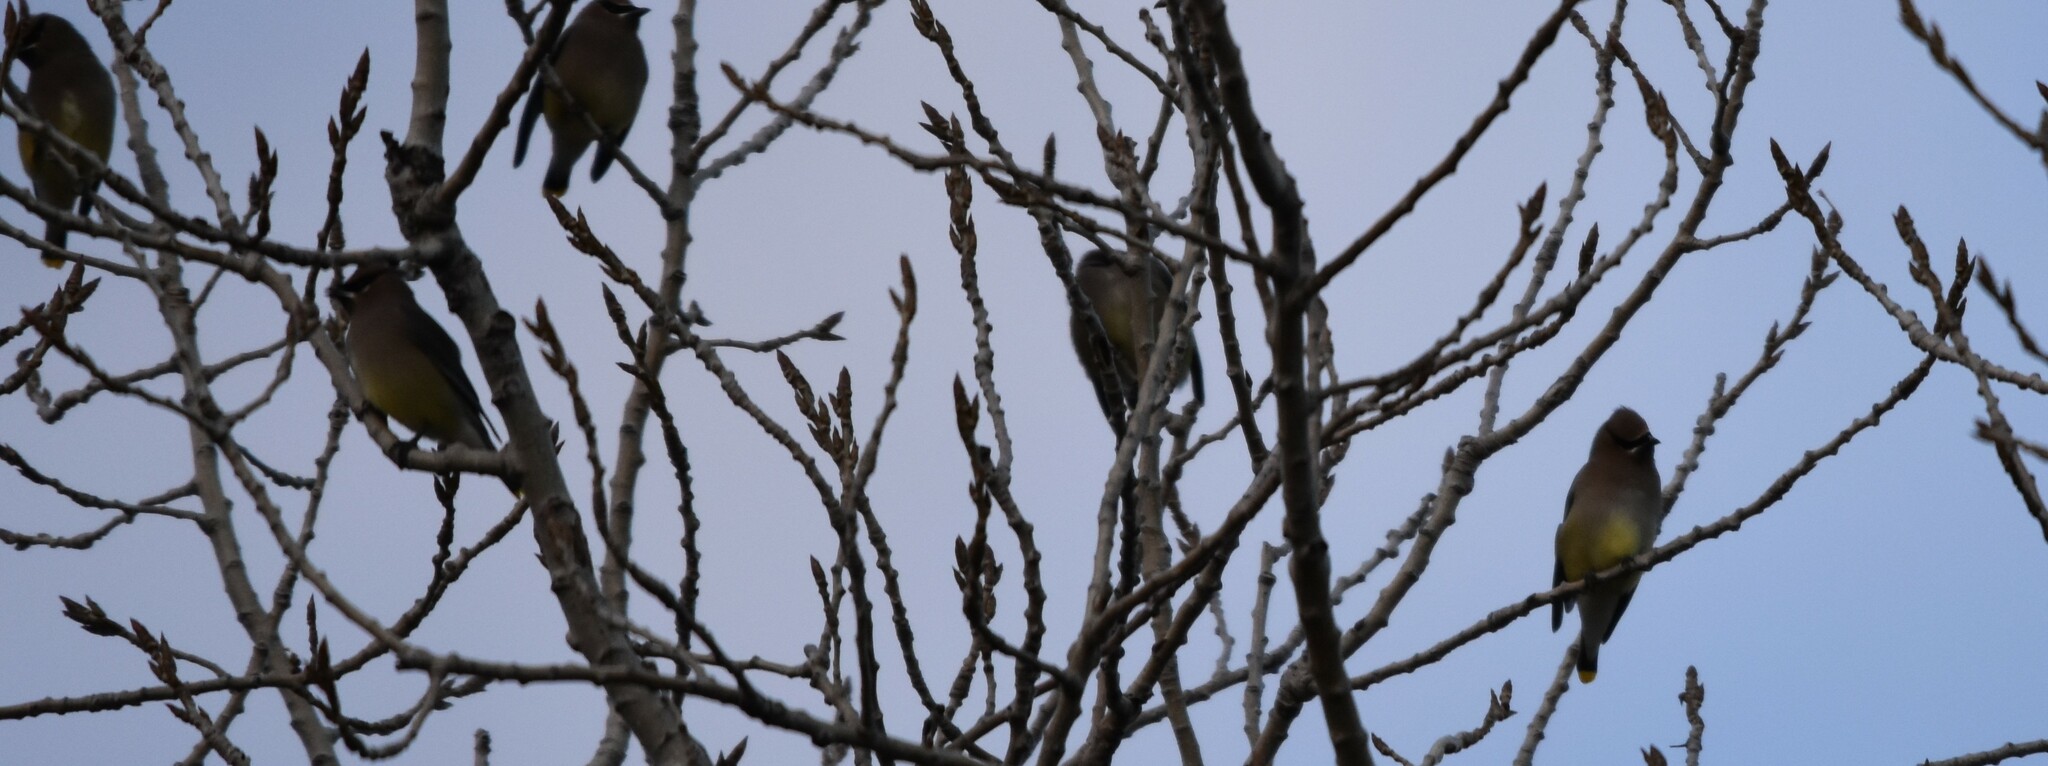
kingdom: Animalia
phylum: Chordata
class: Aves
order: Passeriformes
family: Bombycillidae
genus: Bombycilla
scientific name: Bombycilla cedrorum
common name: Cedar waxwing
